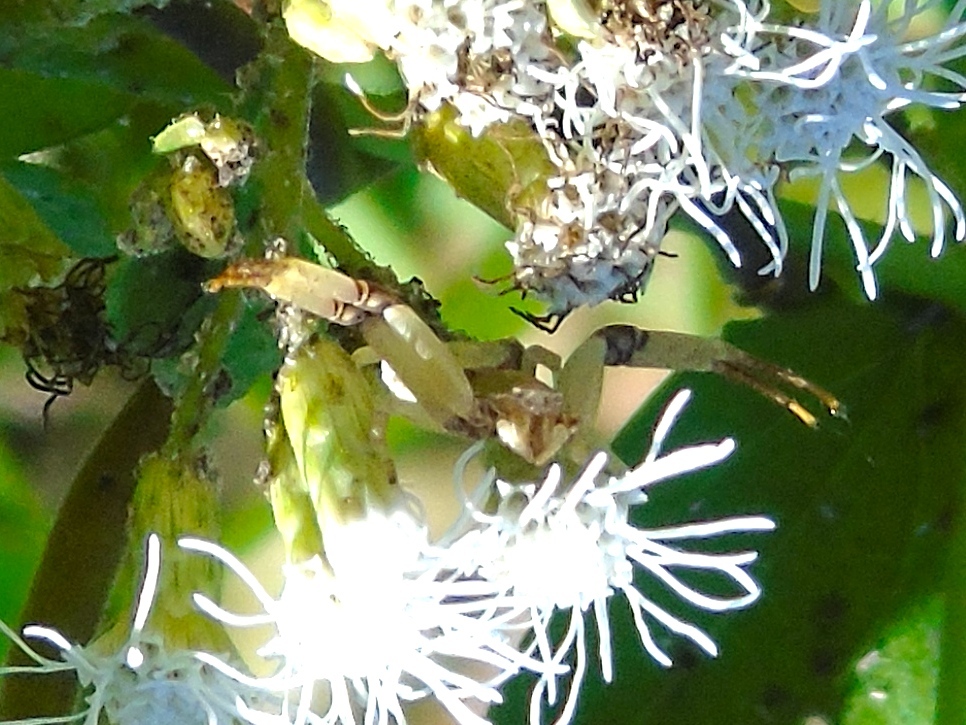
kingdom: Animalia
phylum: Arthropoda
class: Arachnida
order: Araneae
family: Thomisidae
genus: Misumenoides
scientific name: Misumenoides
